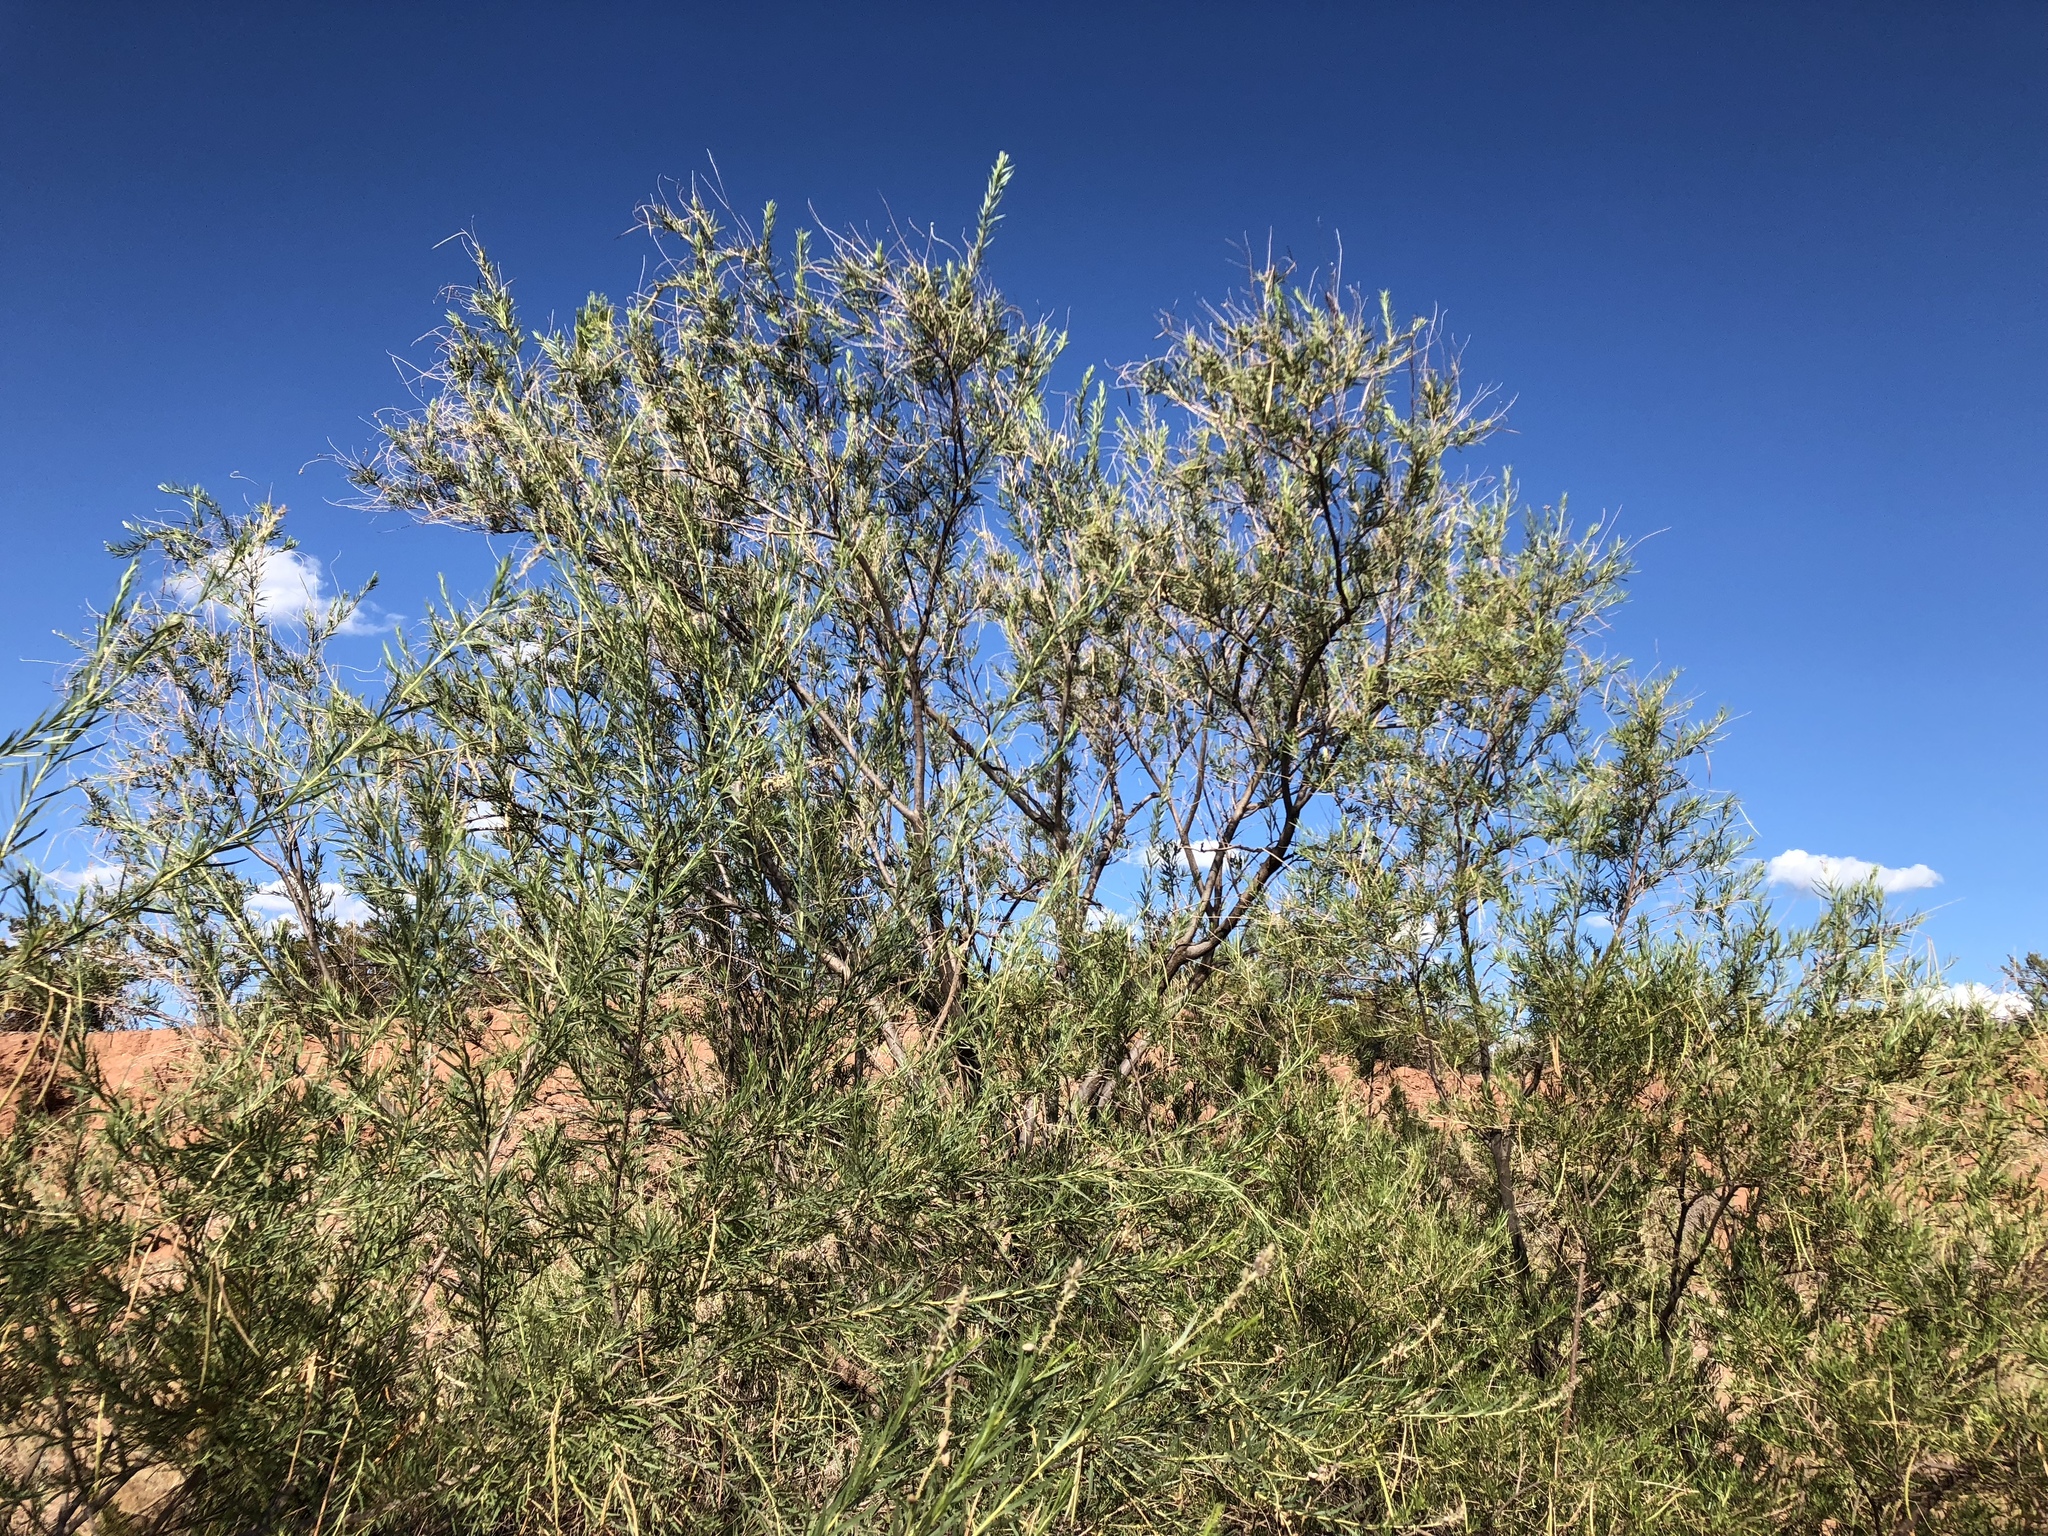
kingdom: Plantae
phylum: Tracheophyta
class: Magnoliopsida
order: Lamiales
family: Bignoniaceae
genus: Chilopsis
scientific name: Chilopsis linearis
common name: Desert-willow
